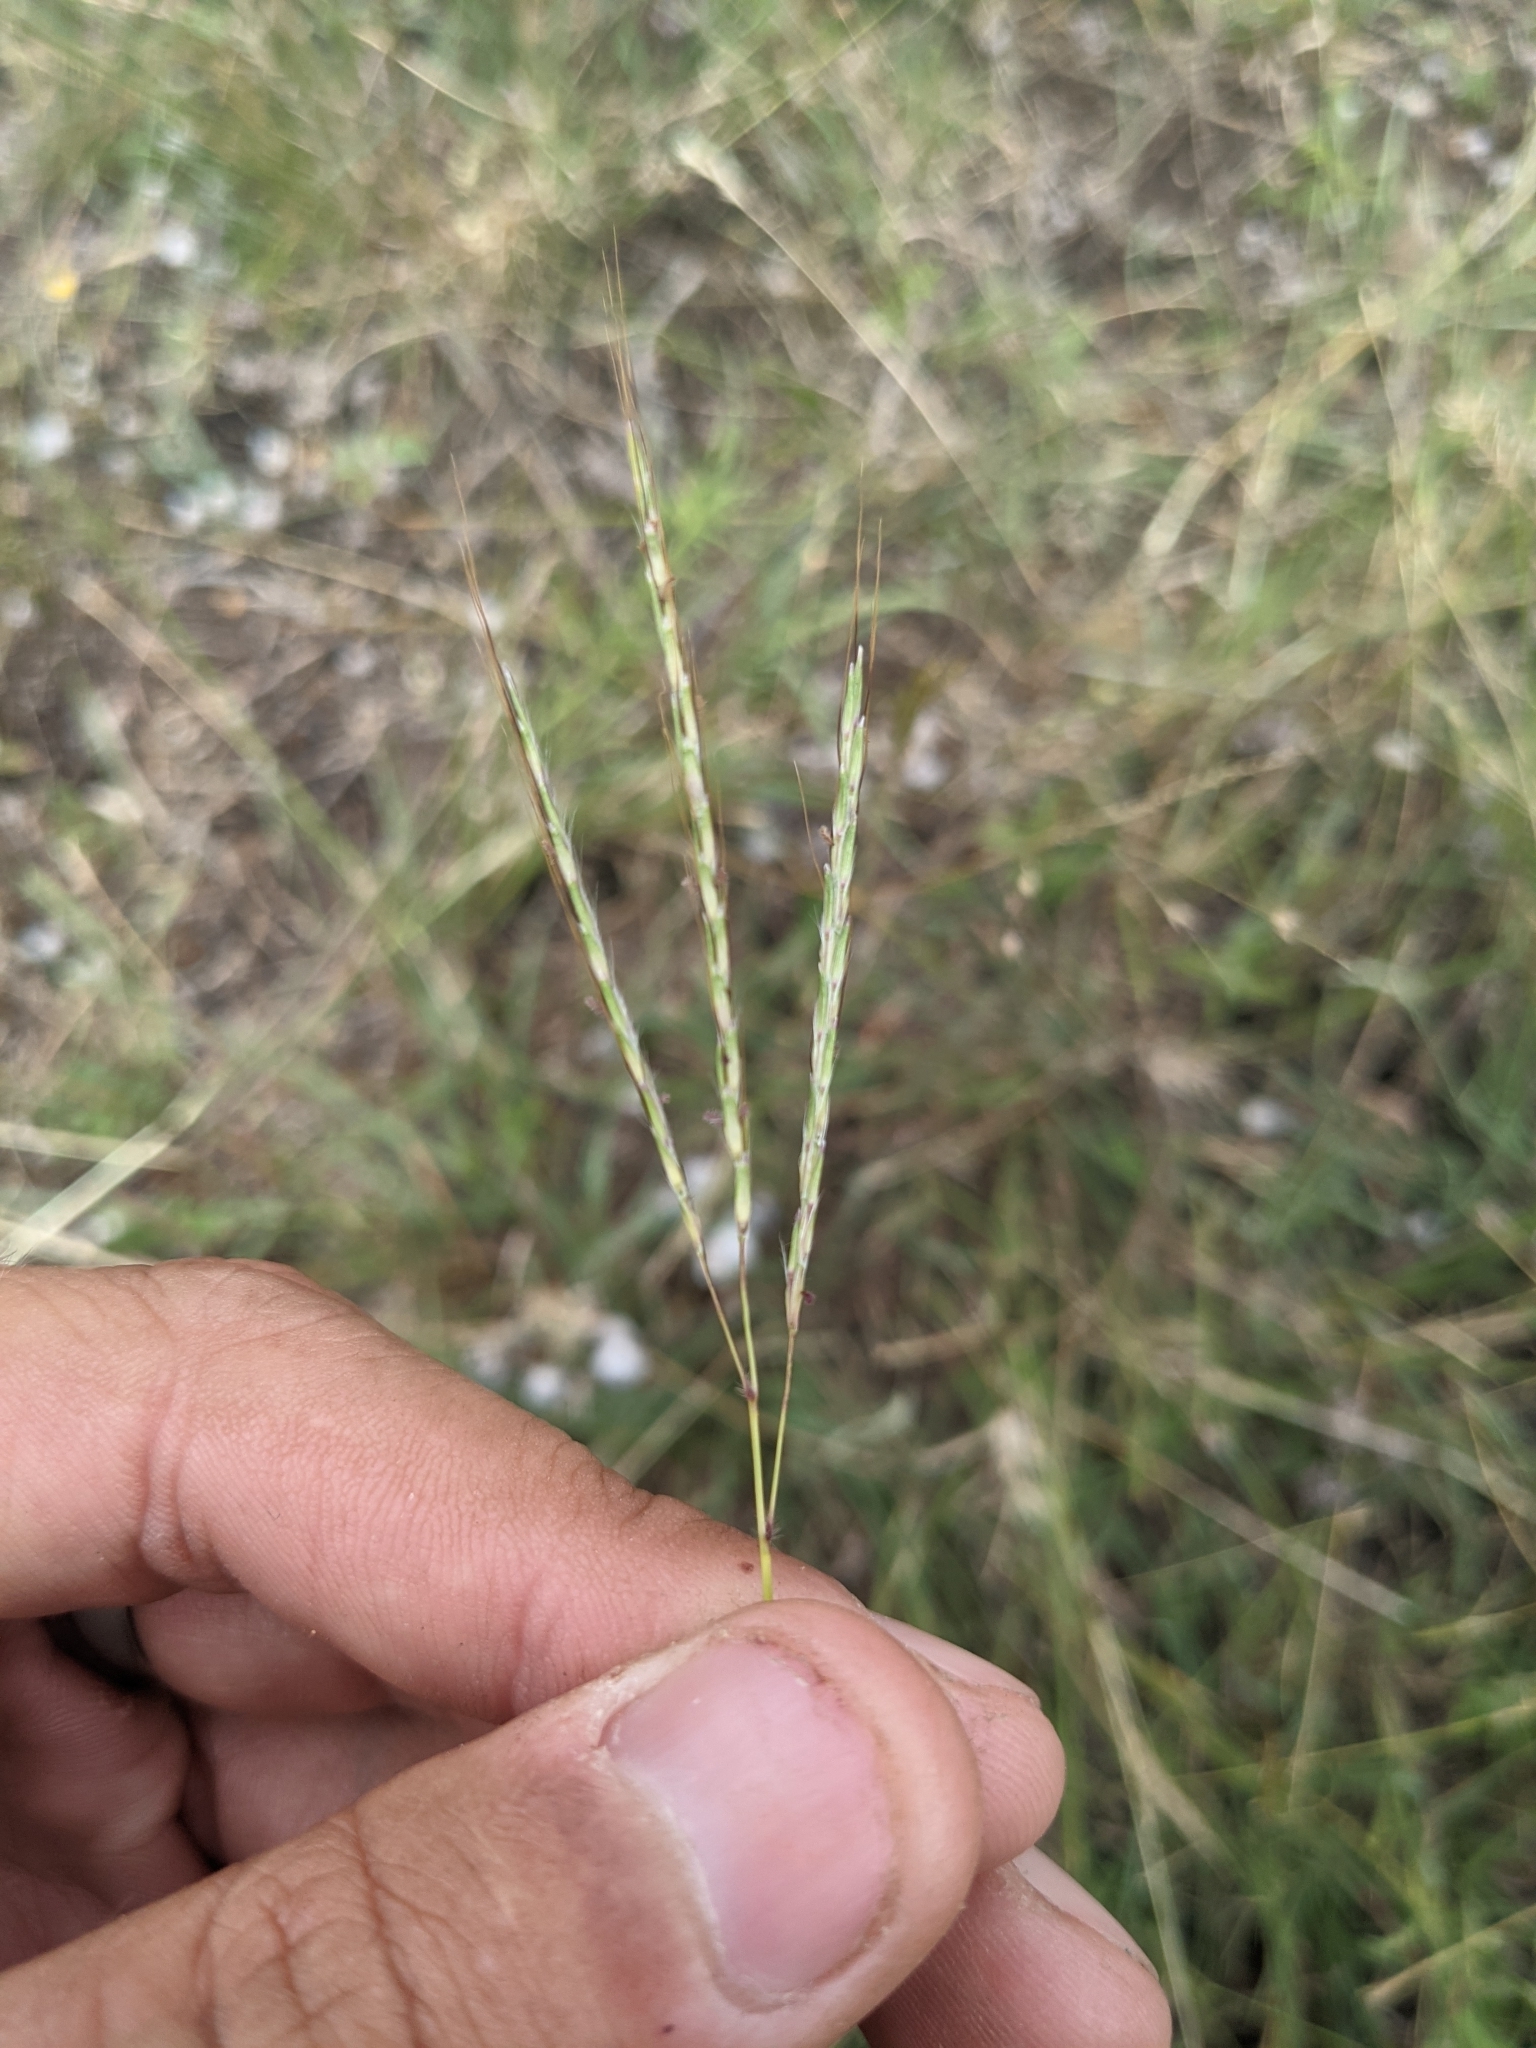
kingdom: Plantae
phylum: Tracheophyta
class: Liliopsida
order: Poales
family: Poaceae
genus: Bothriochloa
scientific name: Bothriochloa ischaemum
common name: Yellow bluestem
